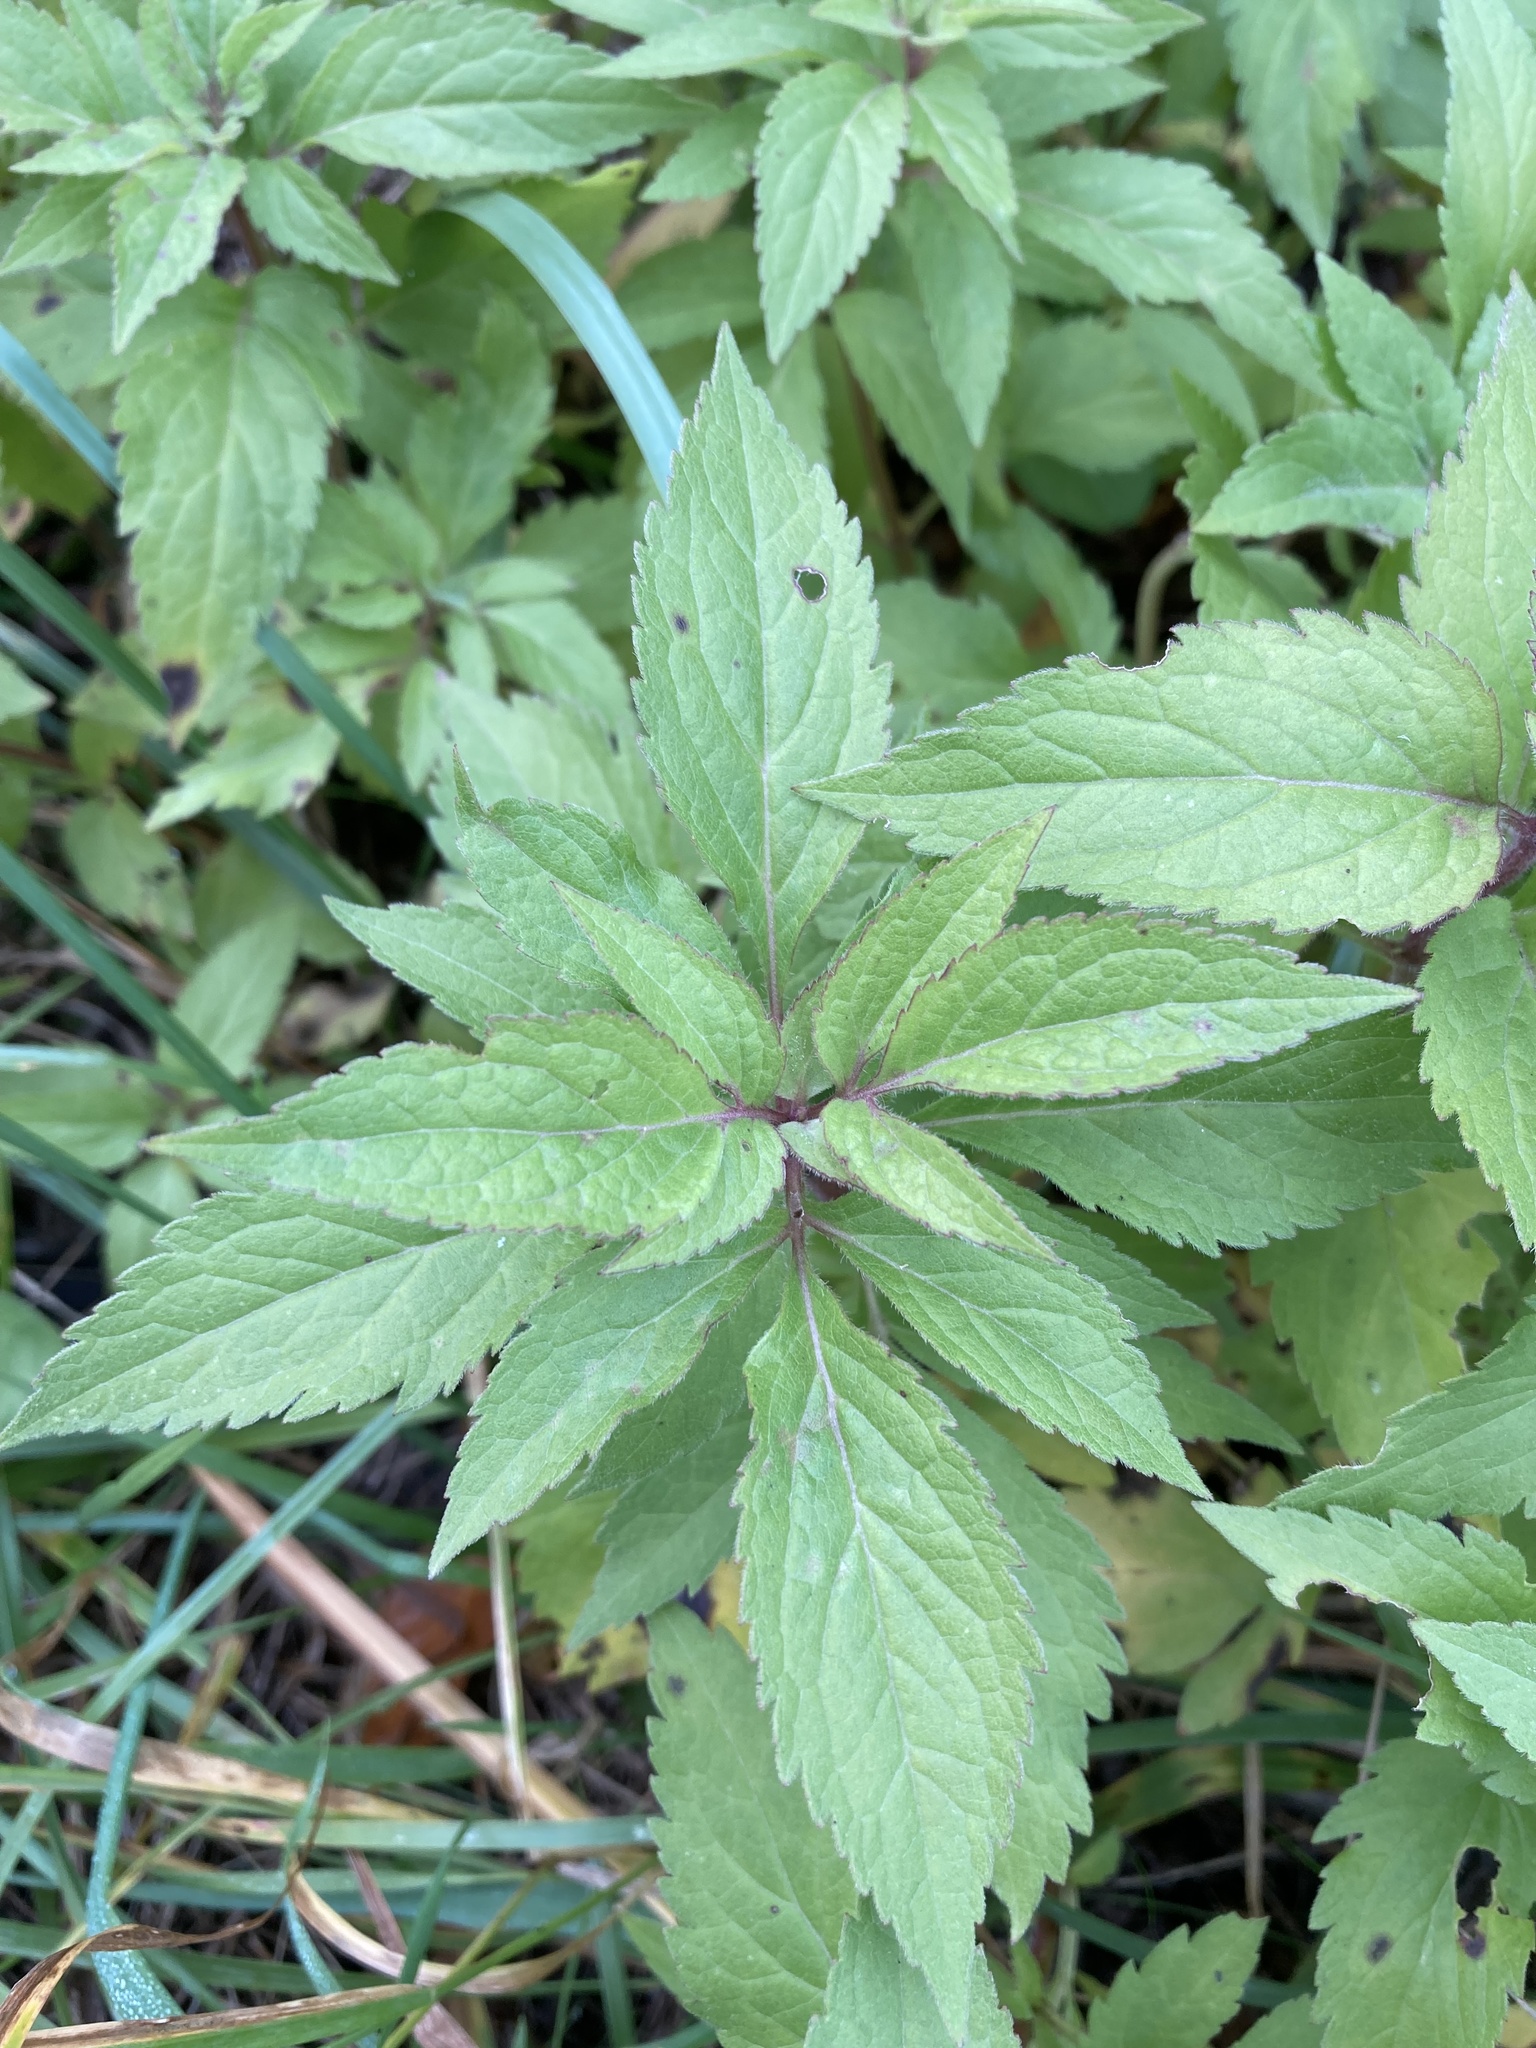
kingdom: Plantae
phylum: Tracheophyta
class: Magnoliopsida
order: Asterales
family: Asteraceae
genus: Eupatorium
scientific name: Eupatorium cannabinum
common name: Hemp-agrimony
